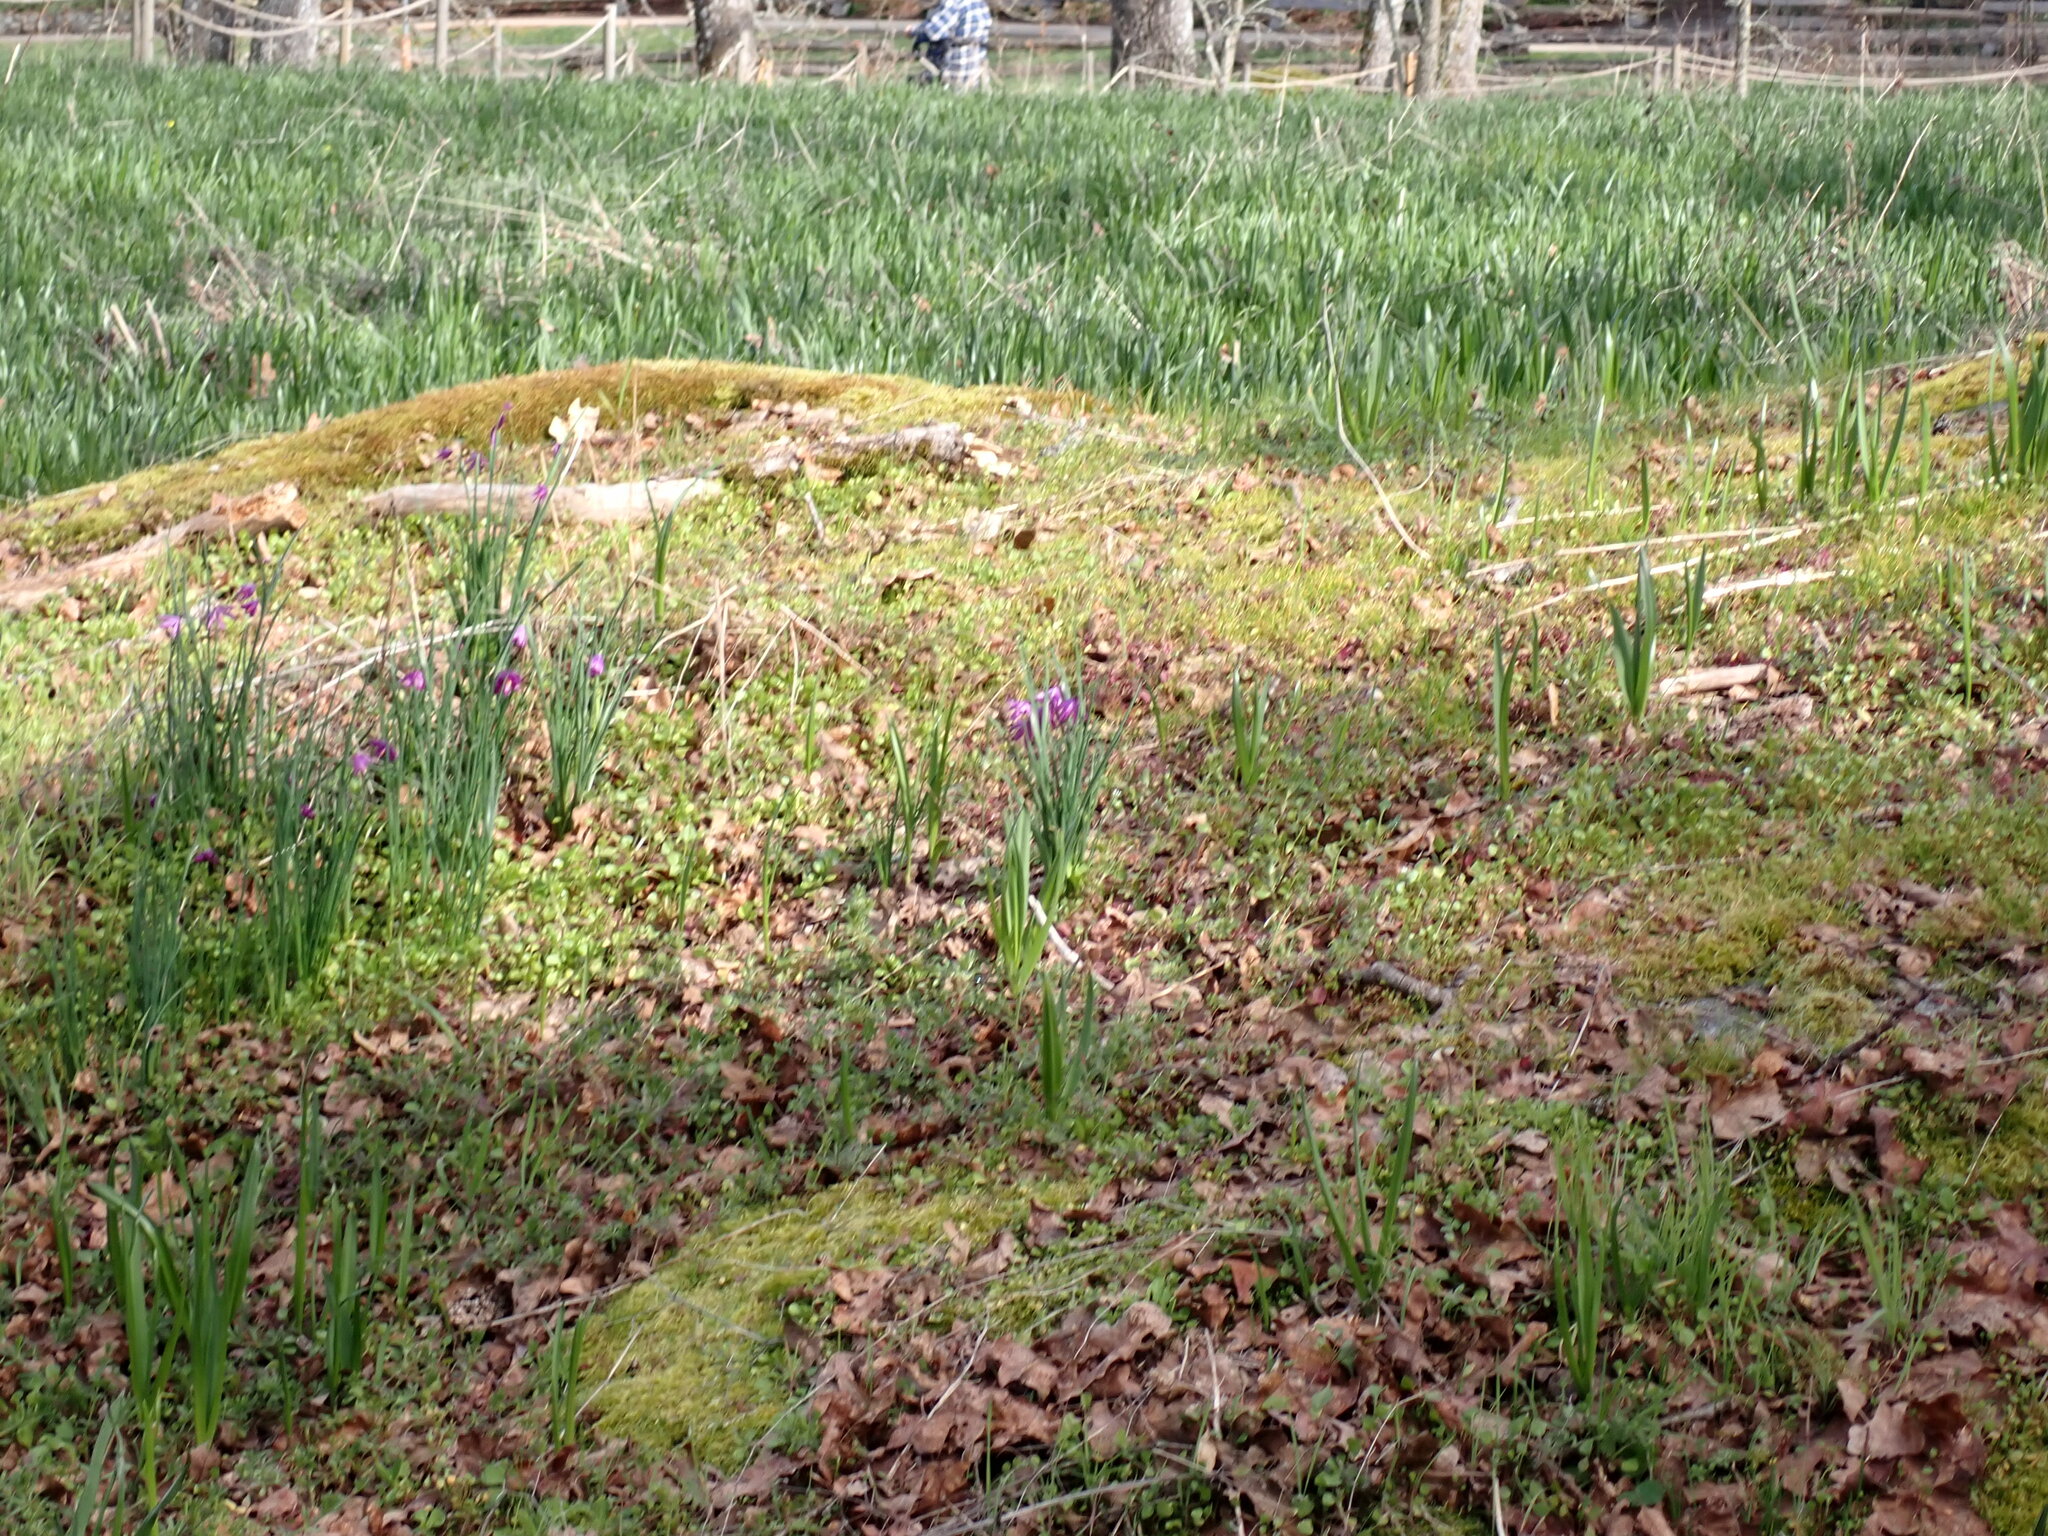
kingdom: Plantae
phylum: Tracheophyta
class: Liliopsida
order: Asparagales
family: Iridaceae
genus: Olsynium
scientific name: Olsynium douglasii
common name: Douglas' grasswidow
